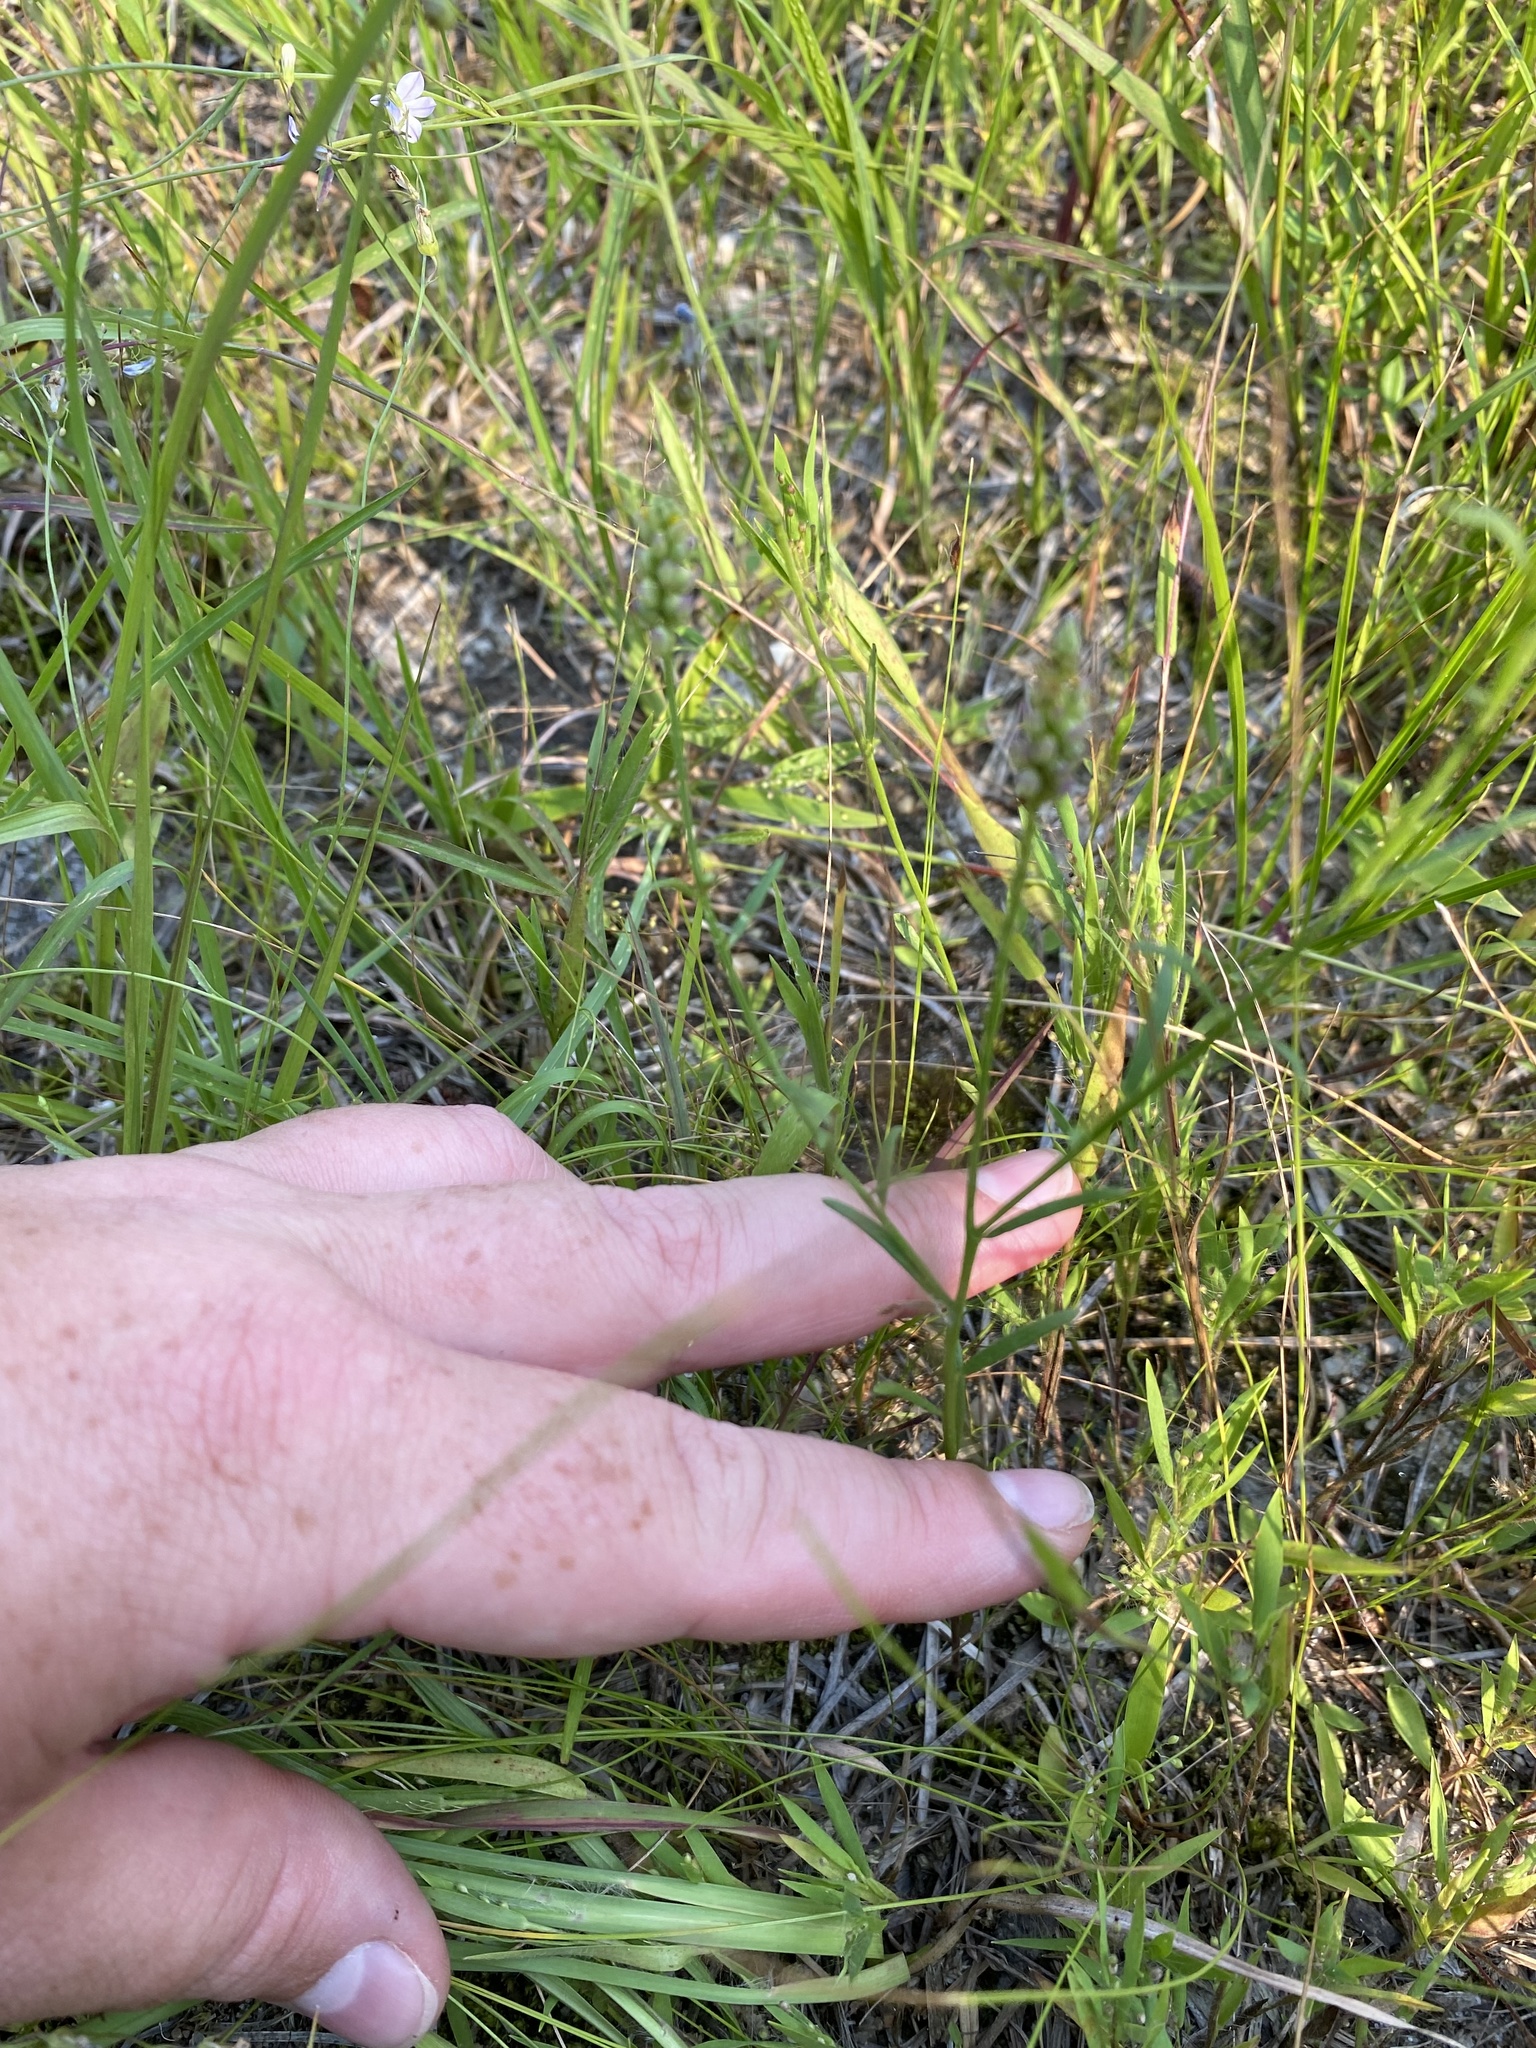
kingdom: Plantae
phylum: Tracheophyta
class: Magnoliopsida
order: Fabales
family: Polygalaceae
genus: Polygala
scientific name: Polygala nuttallii
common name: Nuttall's milkwort
